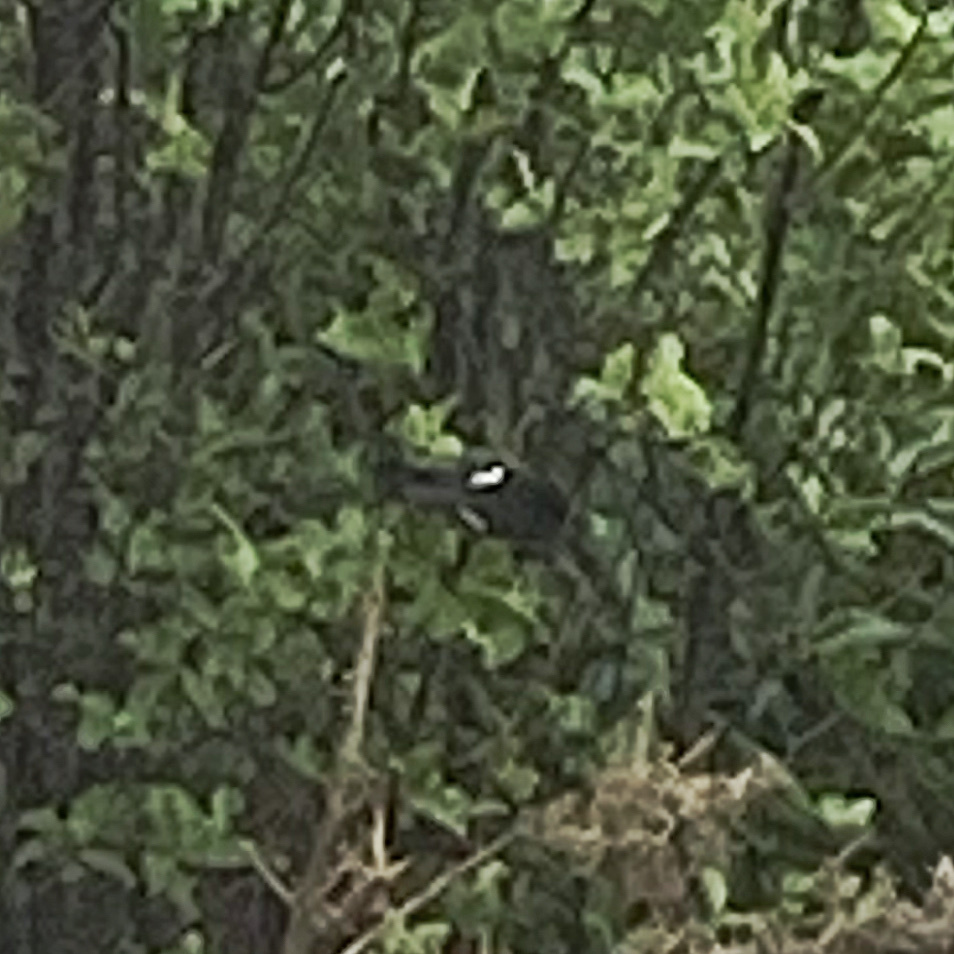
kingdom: Animalia
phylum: Chordata
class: Aves
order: Passeriformes
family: Petroicidae
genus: Petroica
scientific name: Petroica macrocephala
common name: Tomtit
